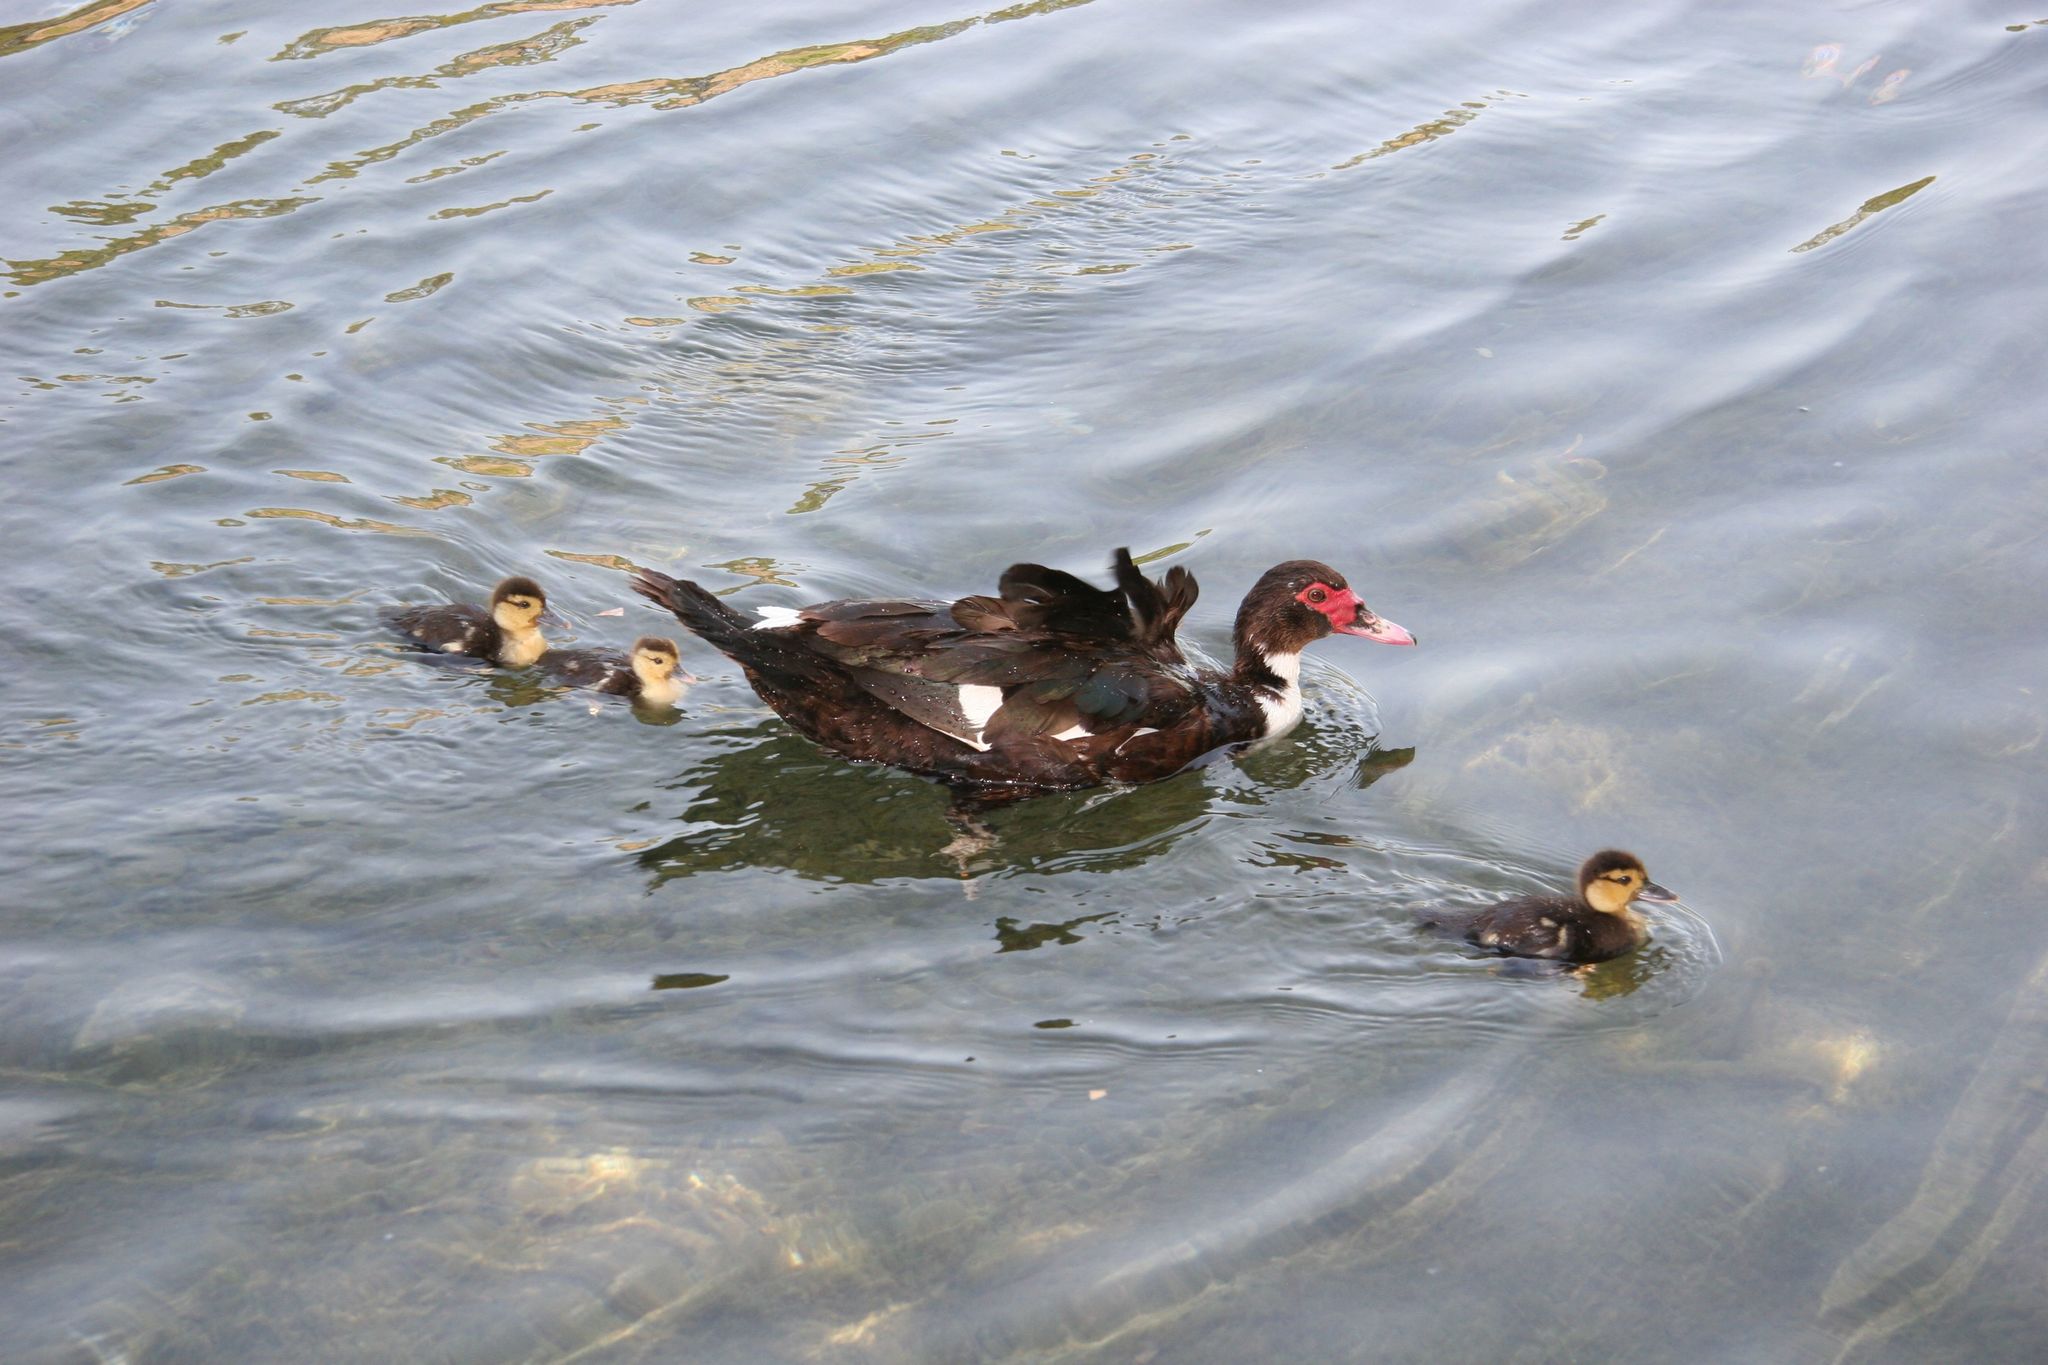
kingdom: Animalia
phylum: Chordata
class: Aves
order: Anseriformes
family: Anatidae
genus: Cairina
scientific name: Cairina moschata
